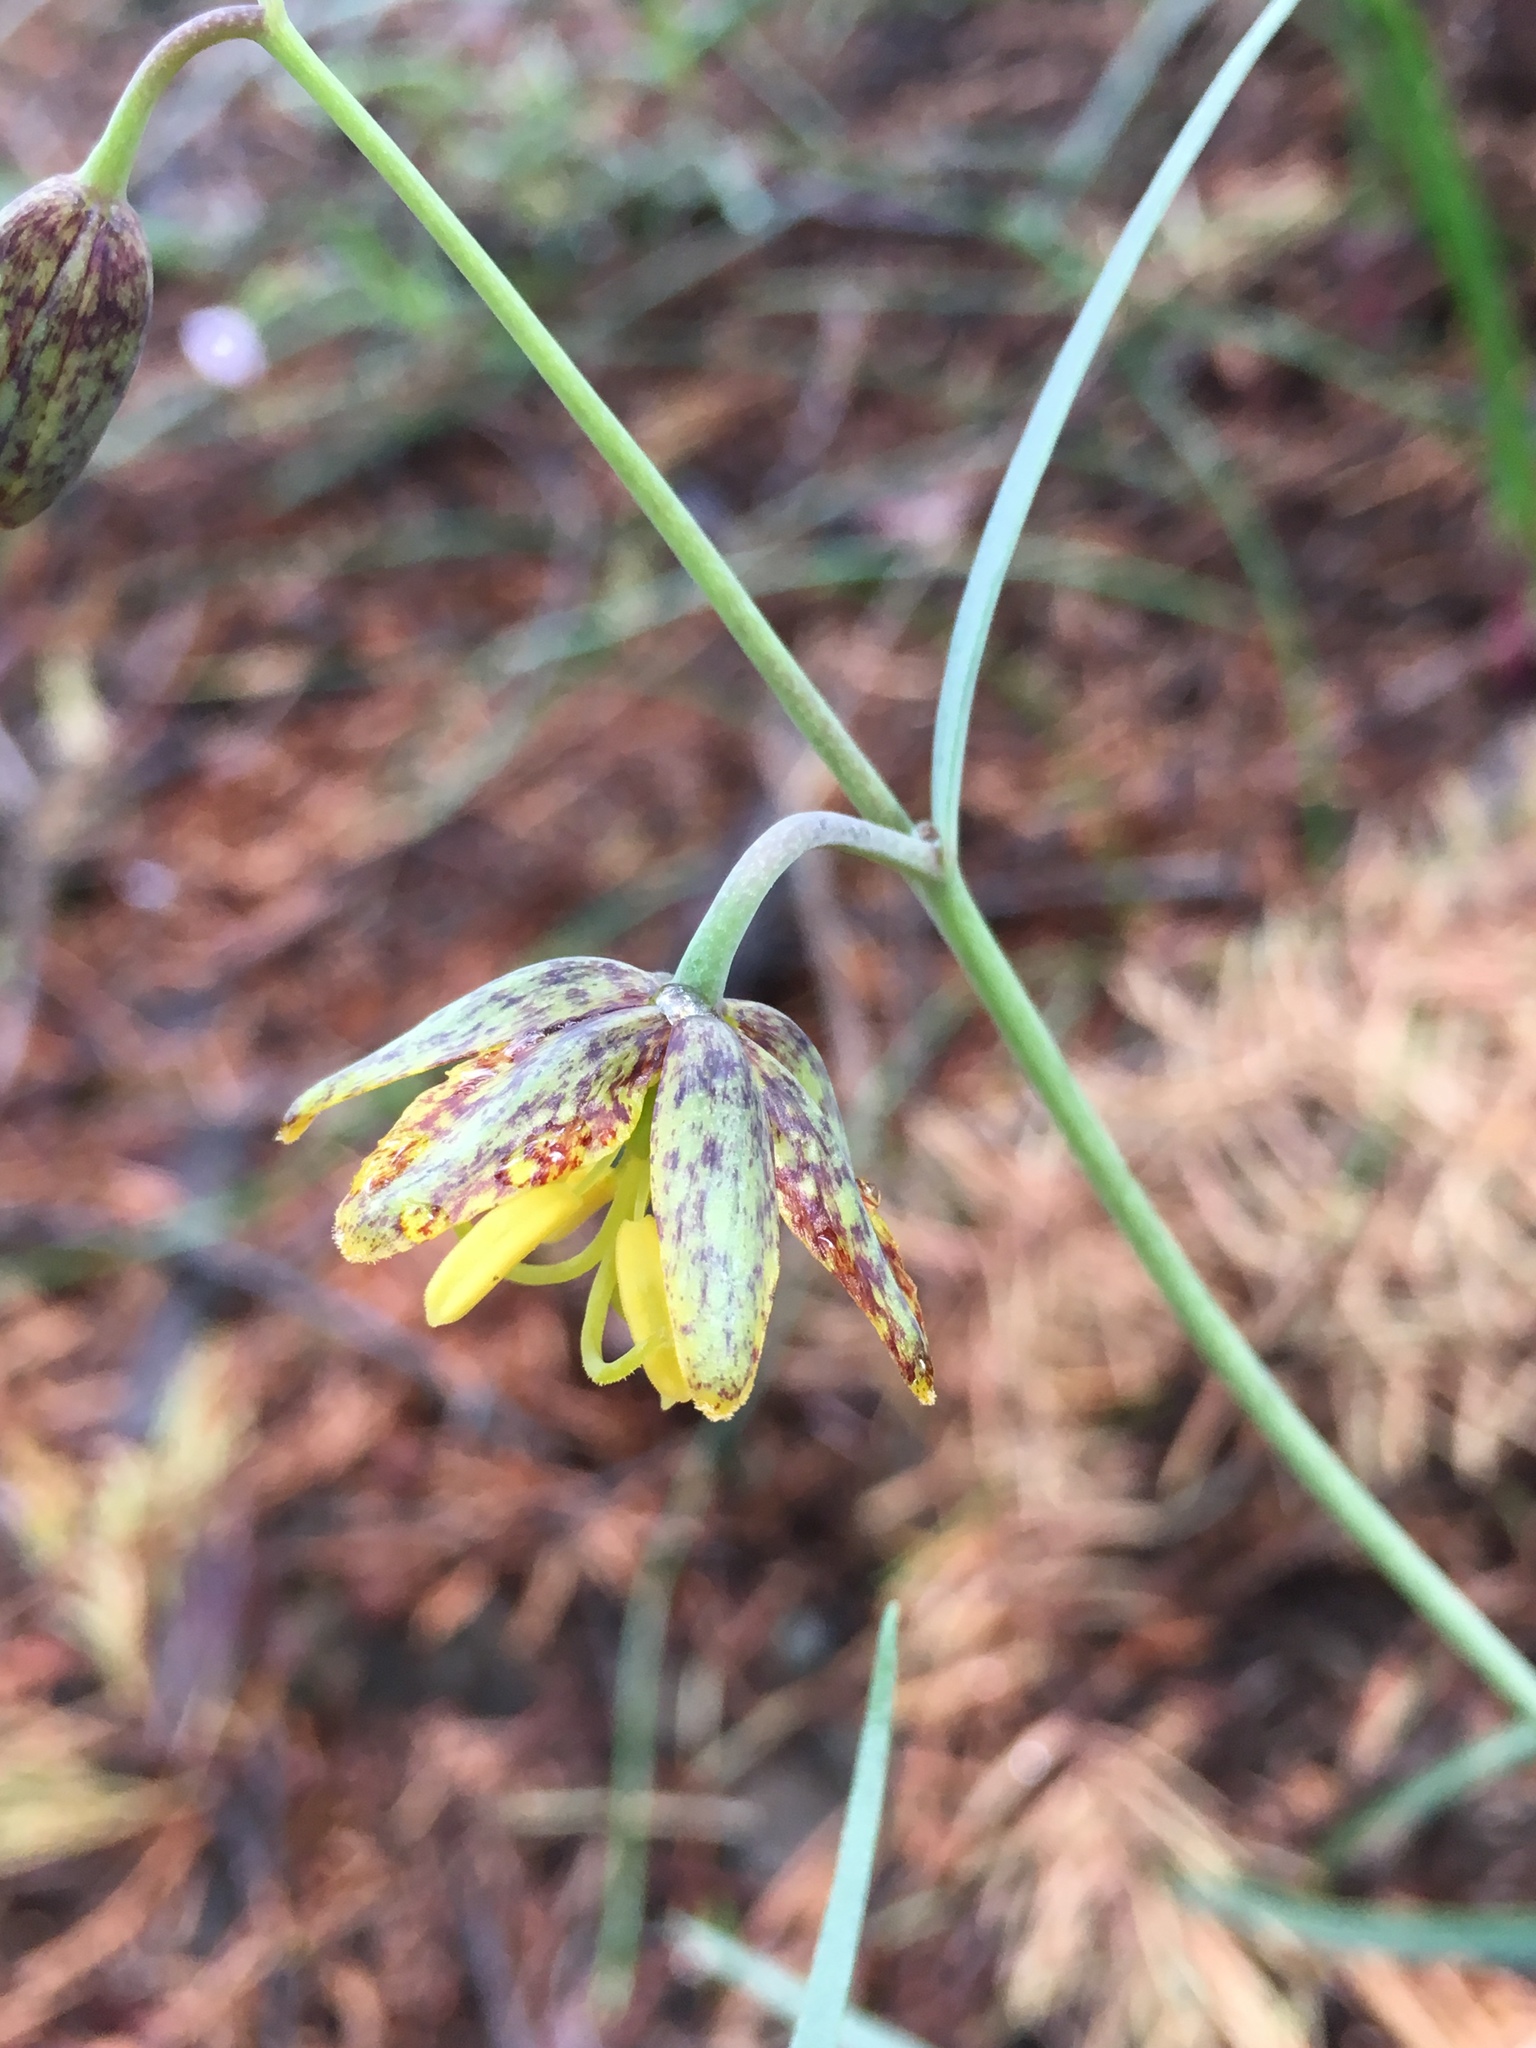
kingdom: Plantae
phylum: Tracheophyta
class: Liliopsida
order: Liliales
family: Liliaceae
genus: Fritillaria
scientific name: Fritillaria affinis
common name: Ojai fritillary
